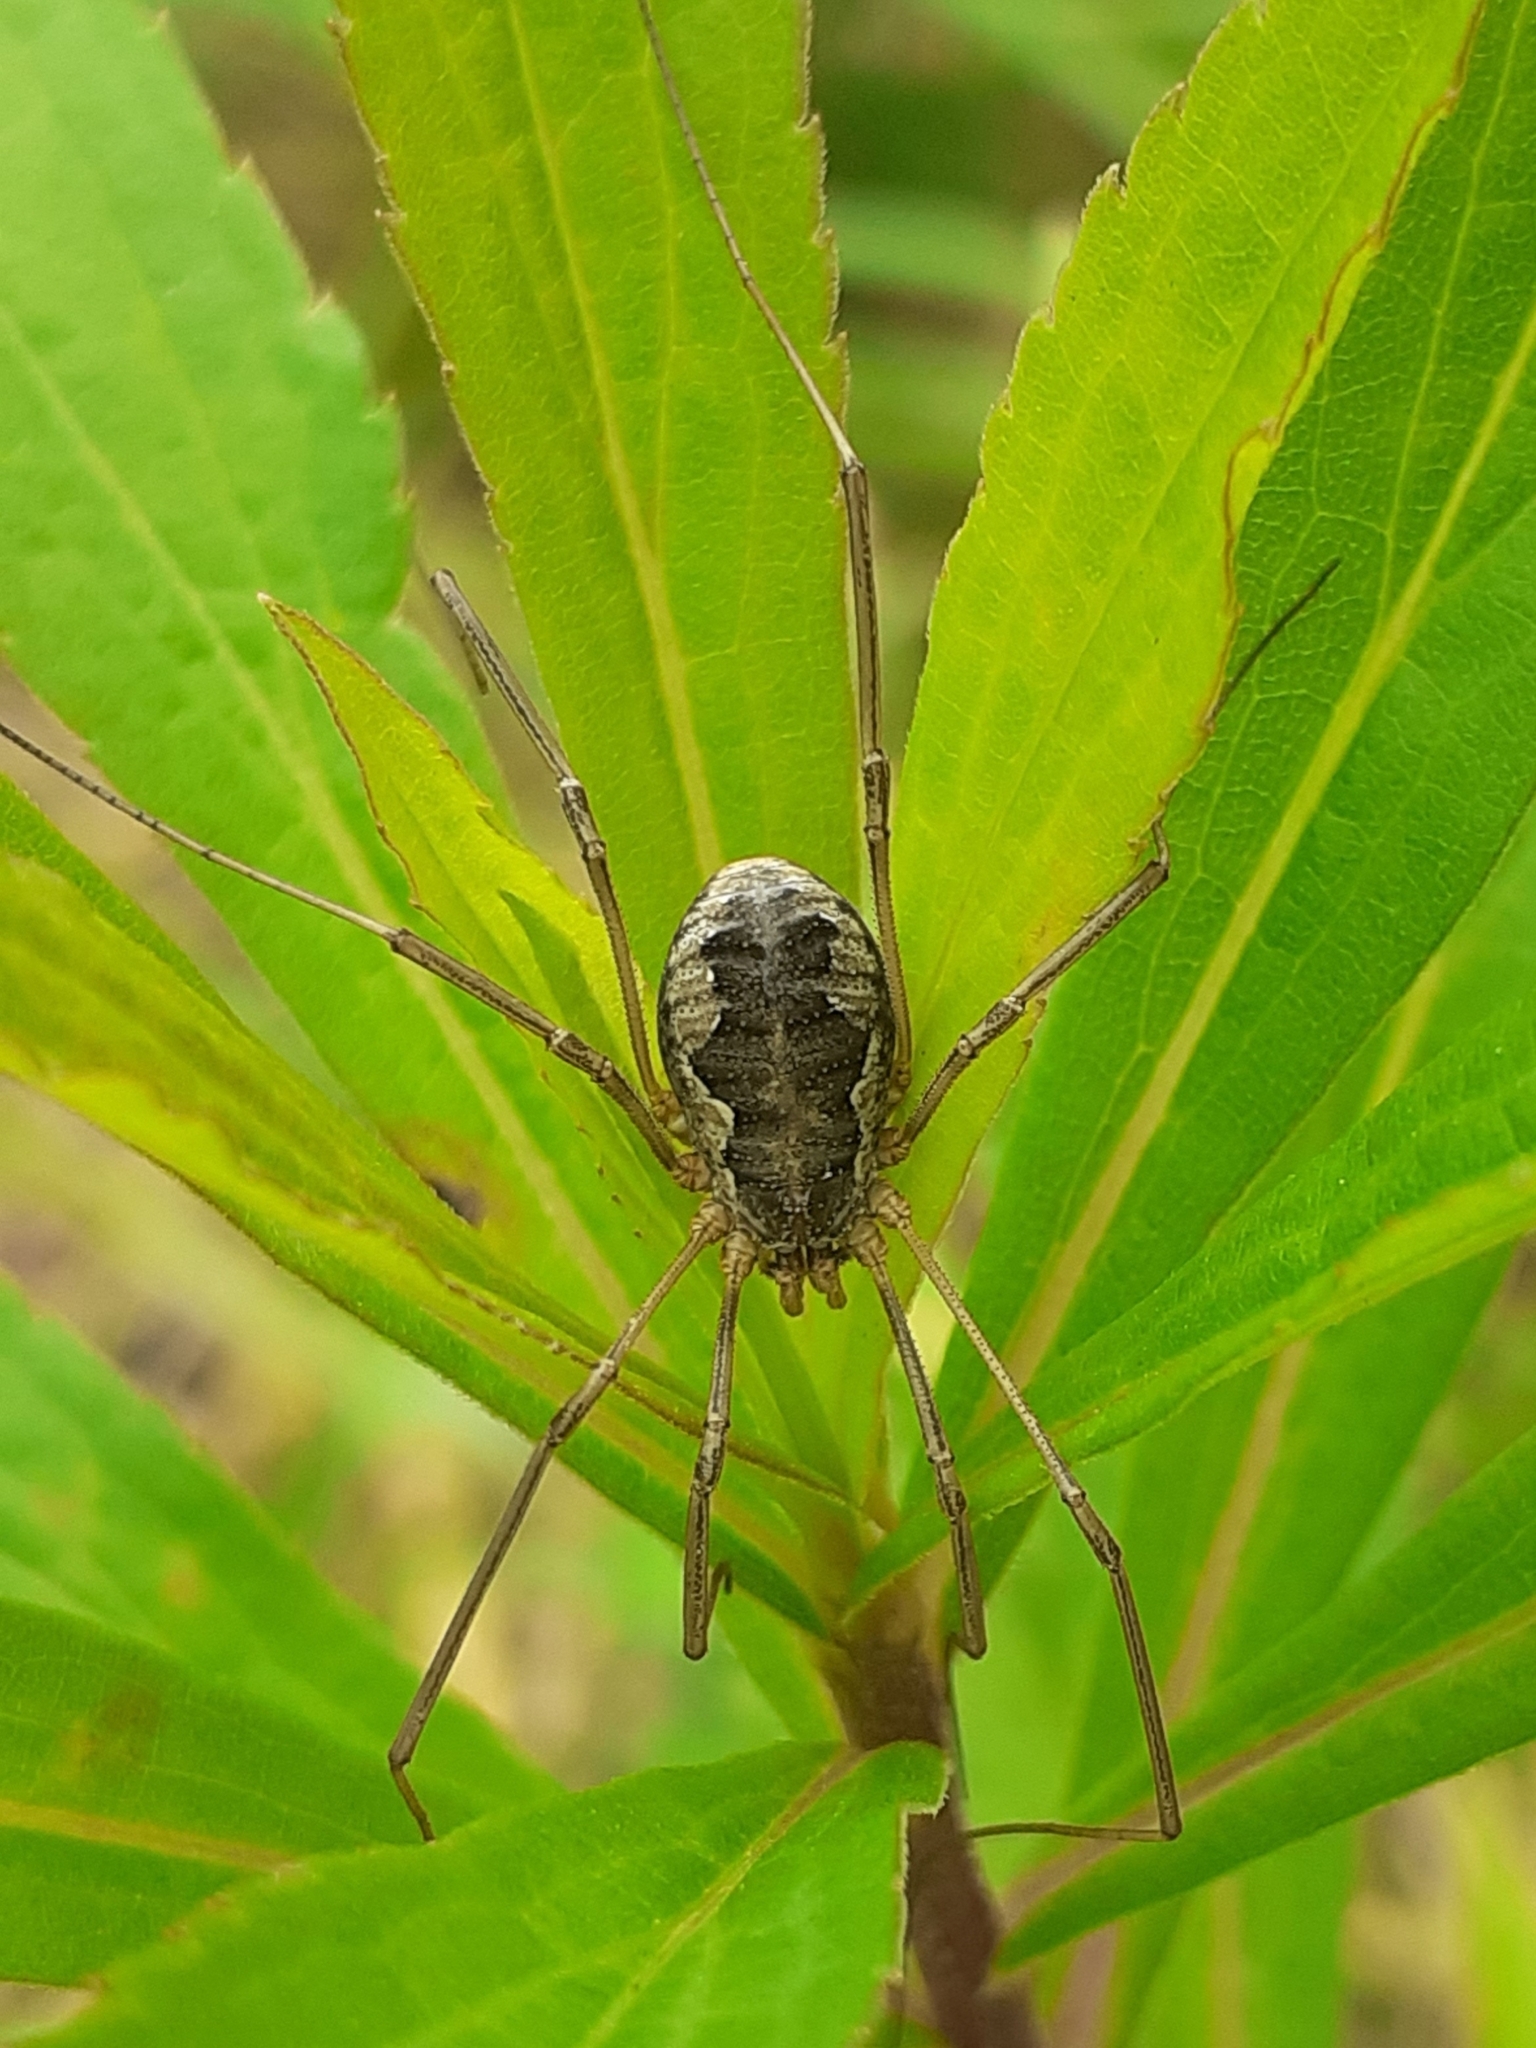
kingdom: Animalia
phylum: Arthropoda
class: Arachnida
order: Opiliones
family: Phalangiidae
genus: Phalangium
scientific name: Phalangium opilio
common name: Daddy longleg
